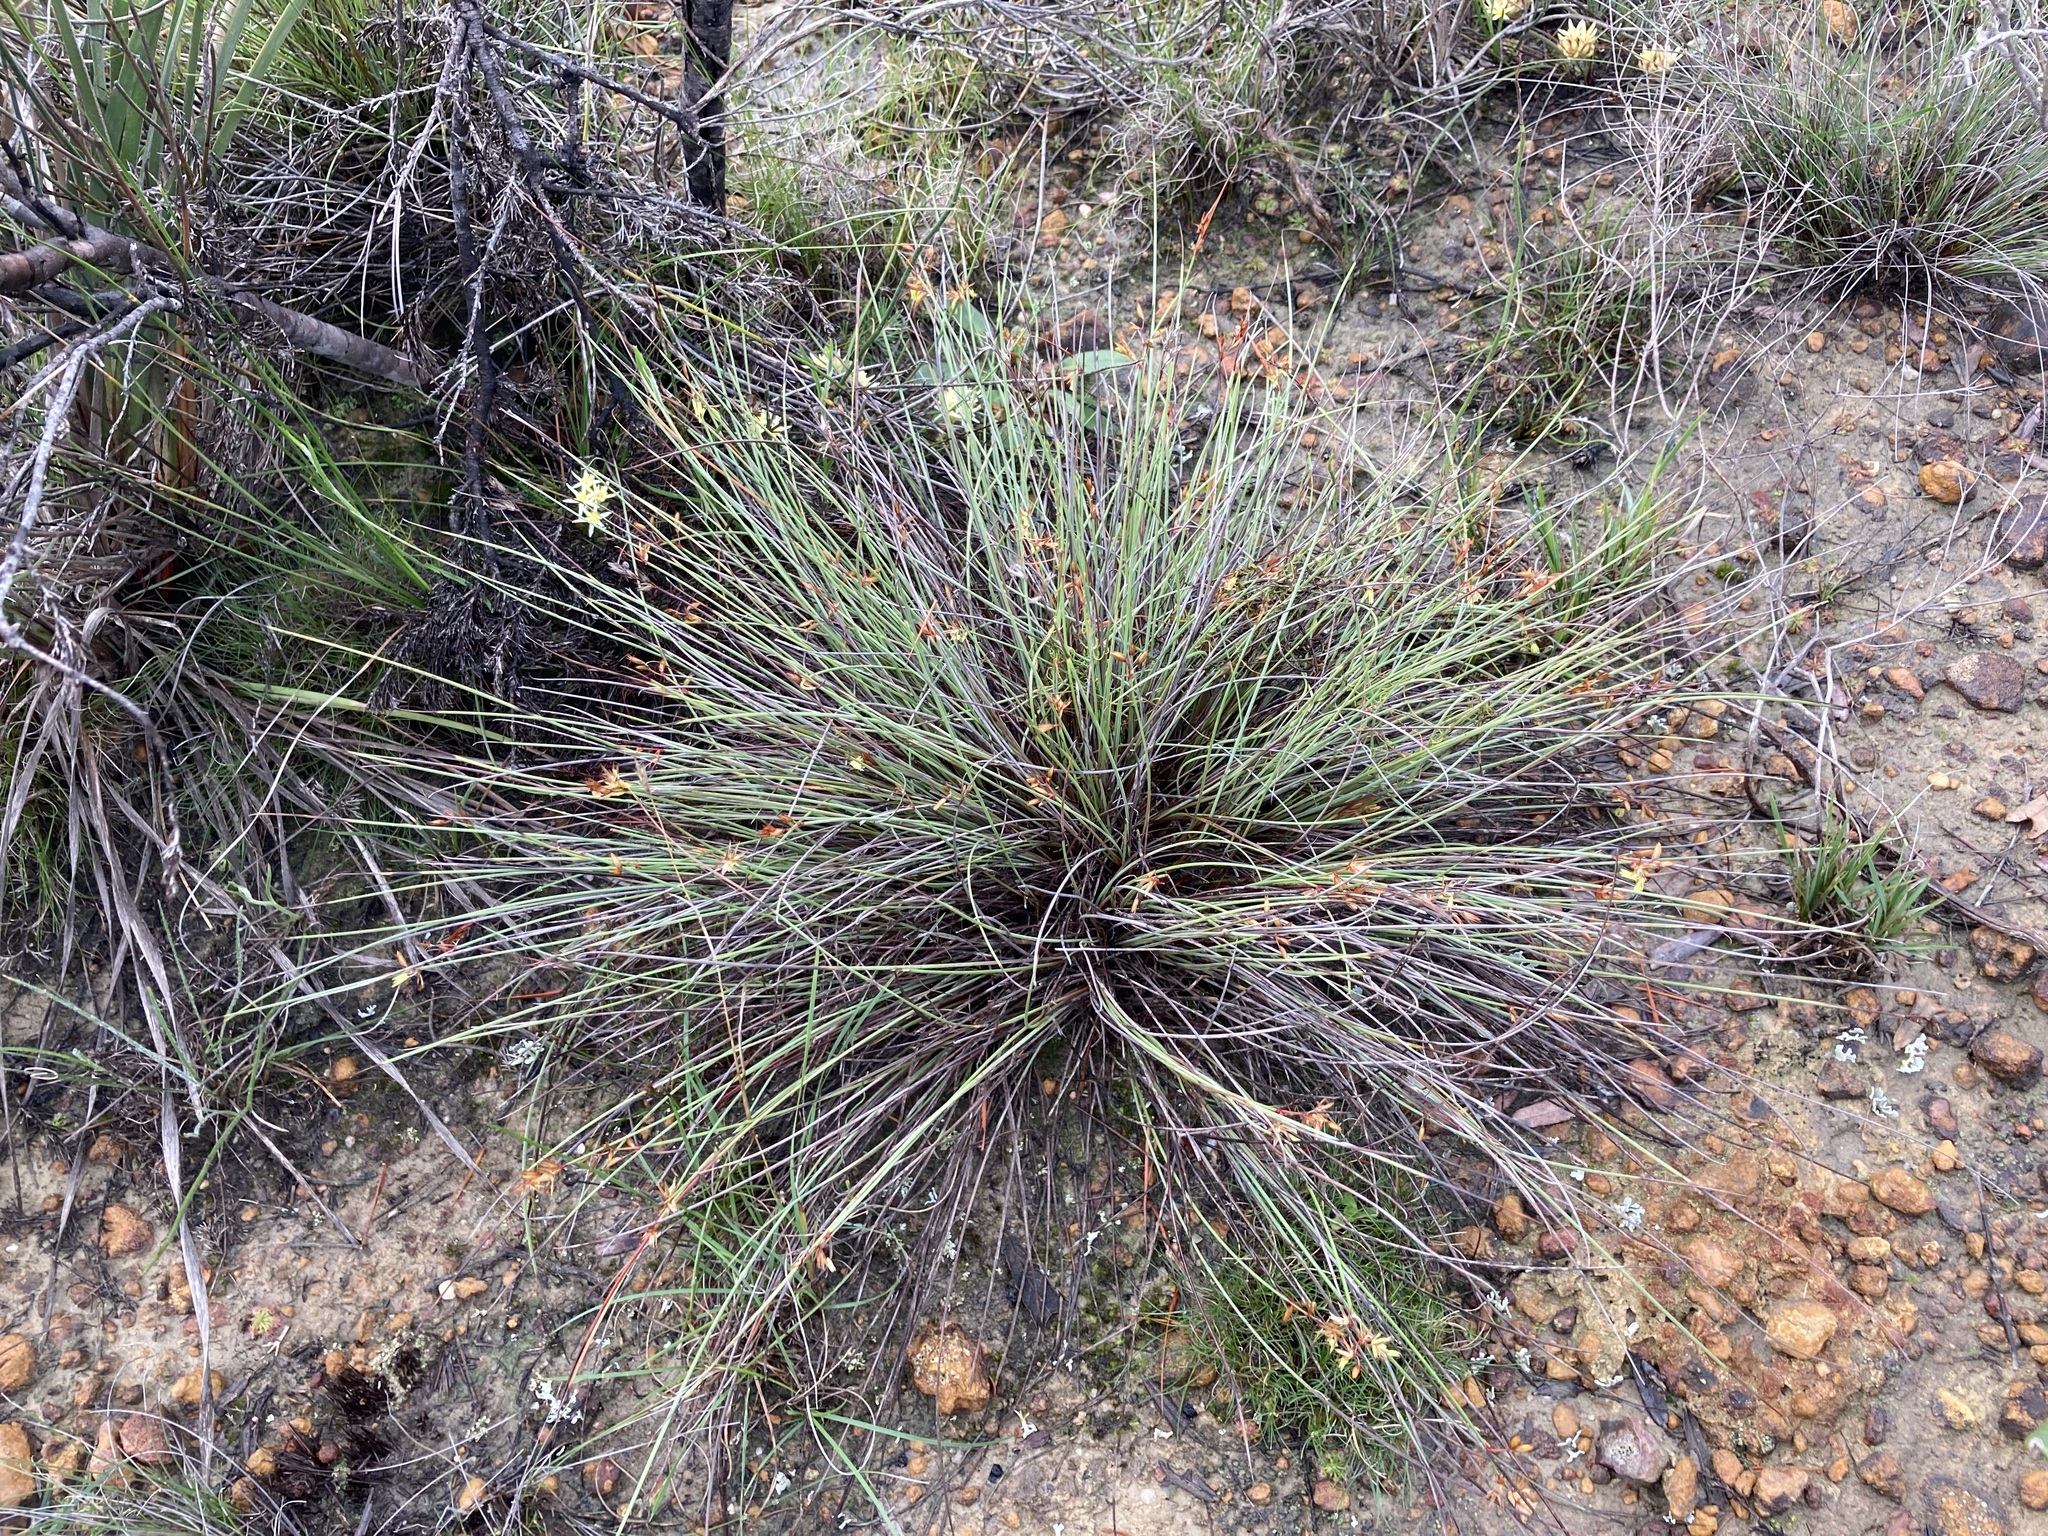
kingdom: Plantae
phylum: Tracheophyta
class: Liliopsida
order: Poales
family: Restionaceae
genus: Anarthria
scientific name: Anarthria humilis
